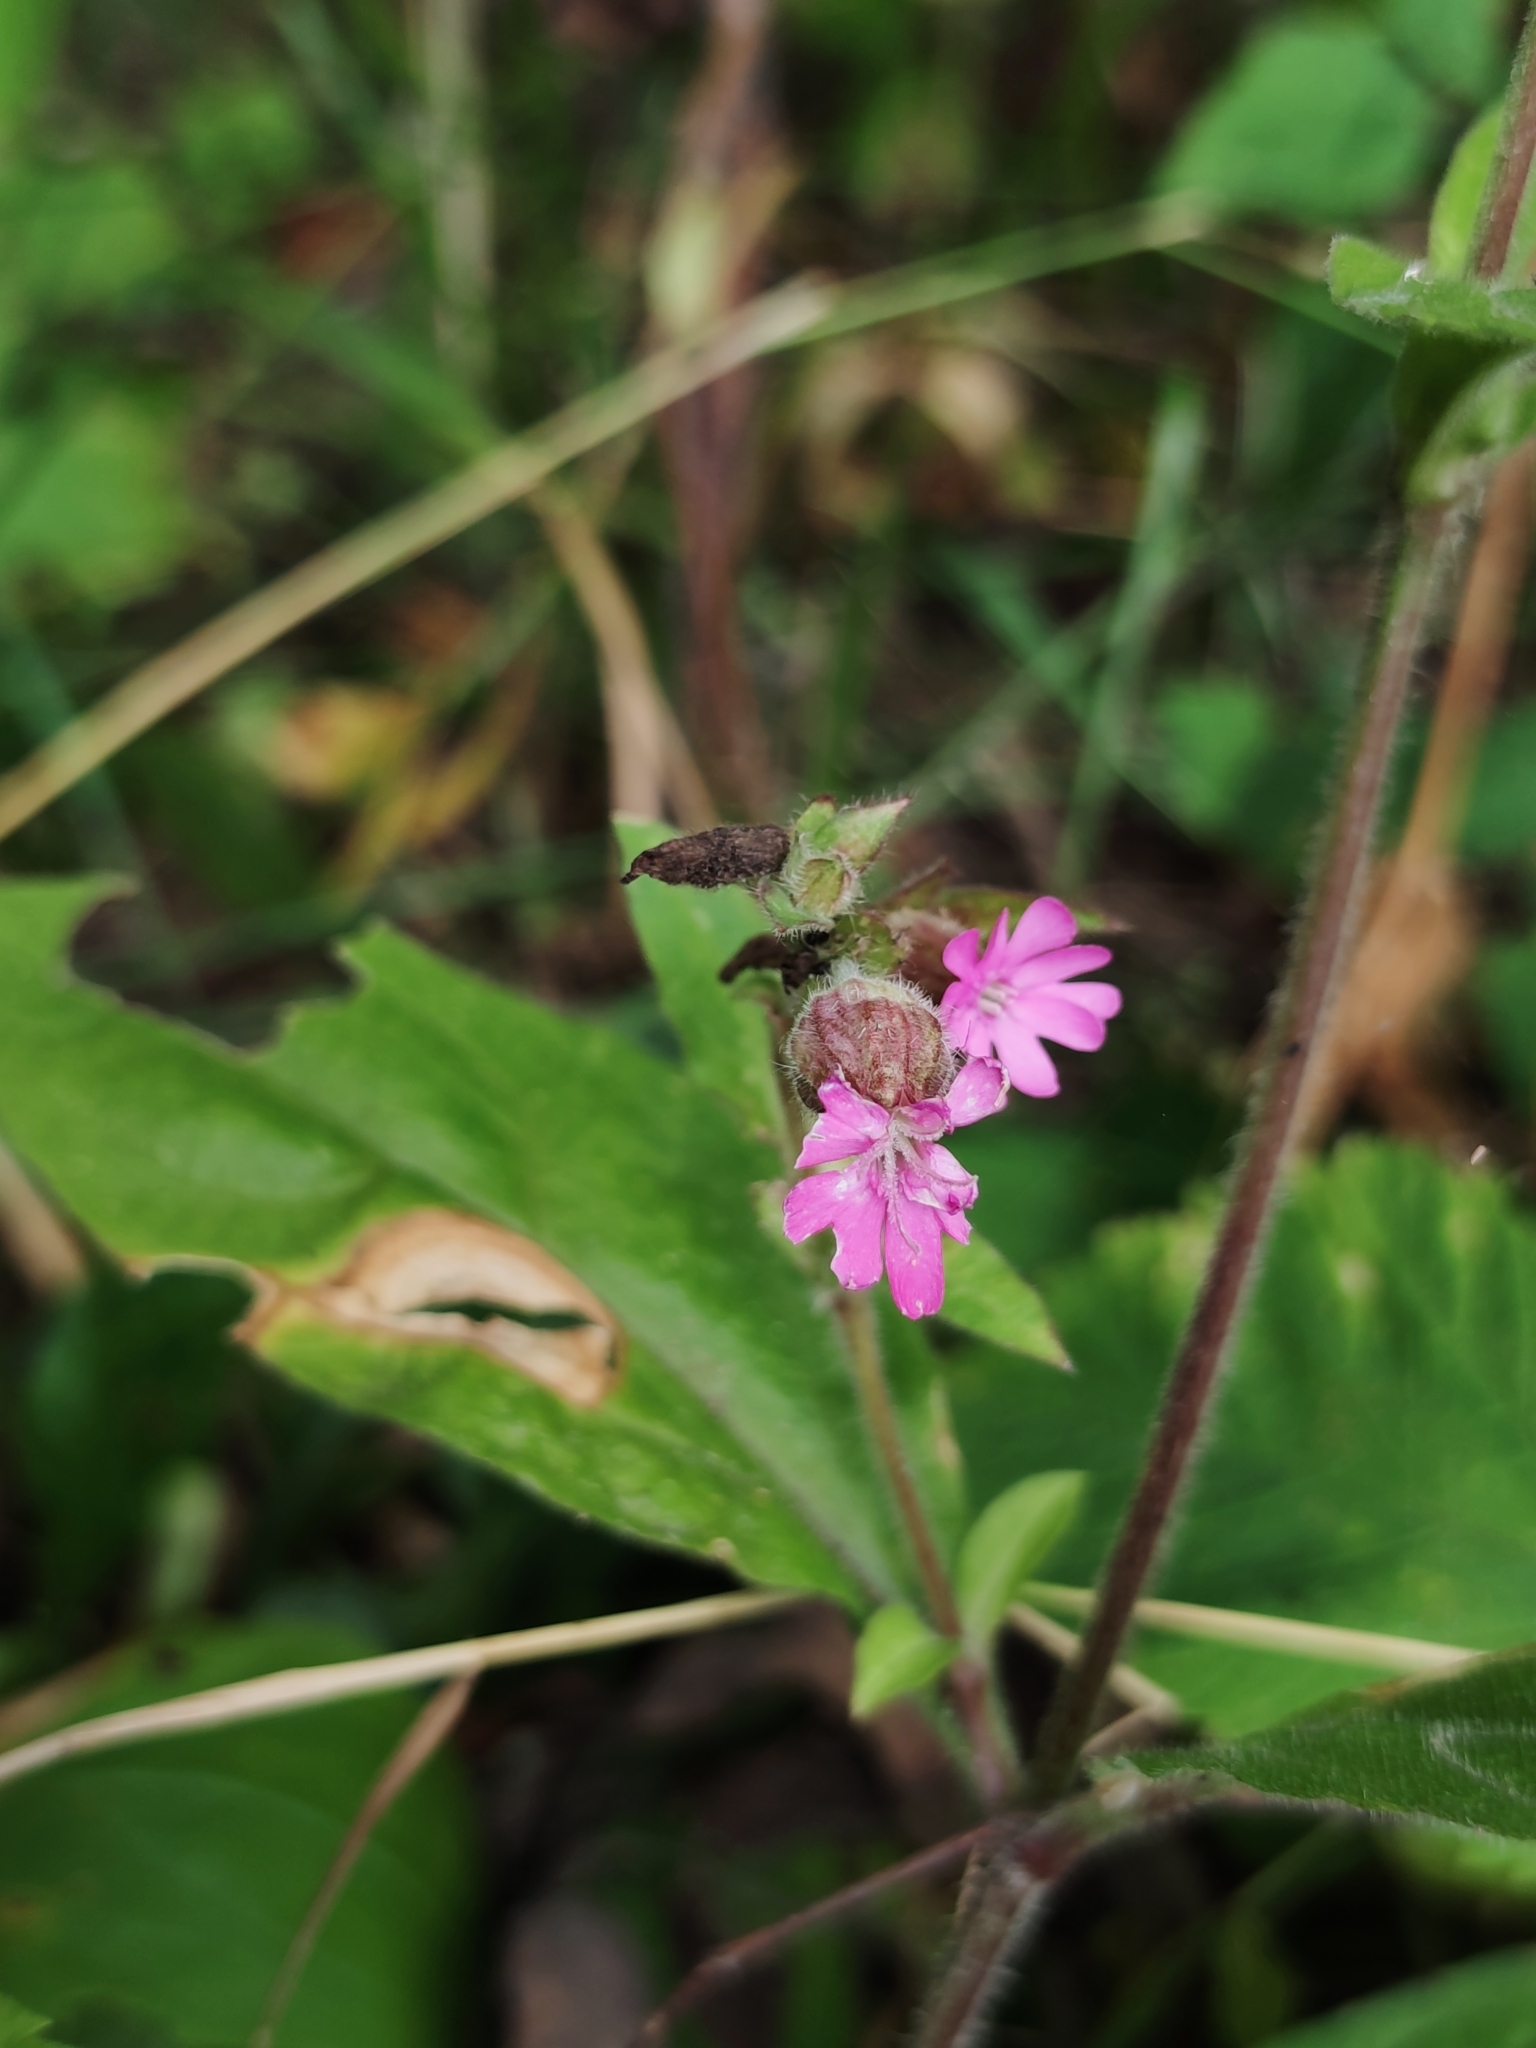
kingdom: Plantae
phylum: Tracheophyta
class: Magnoliopsida
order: Caryophyllales
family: Caryophyllaceae
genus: Silene
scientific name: Silene dioica
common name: Red campion
